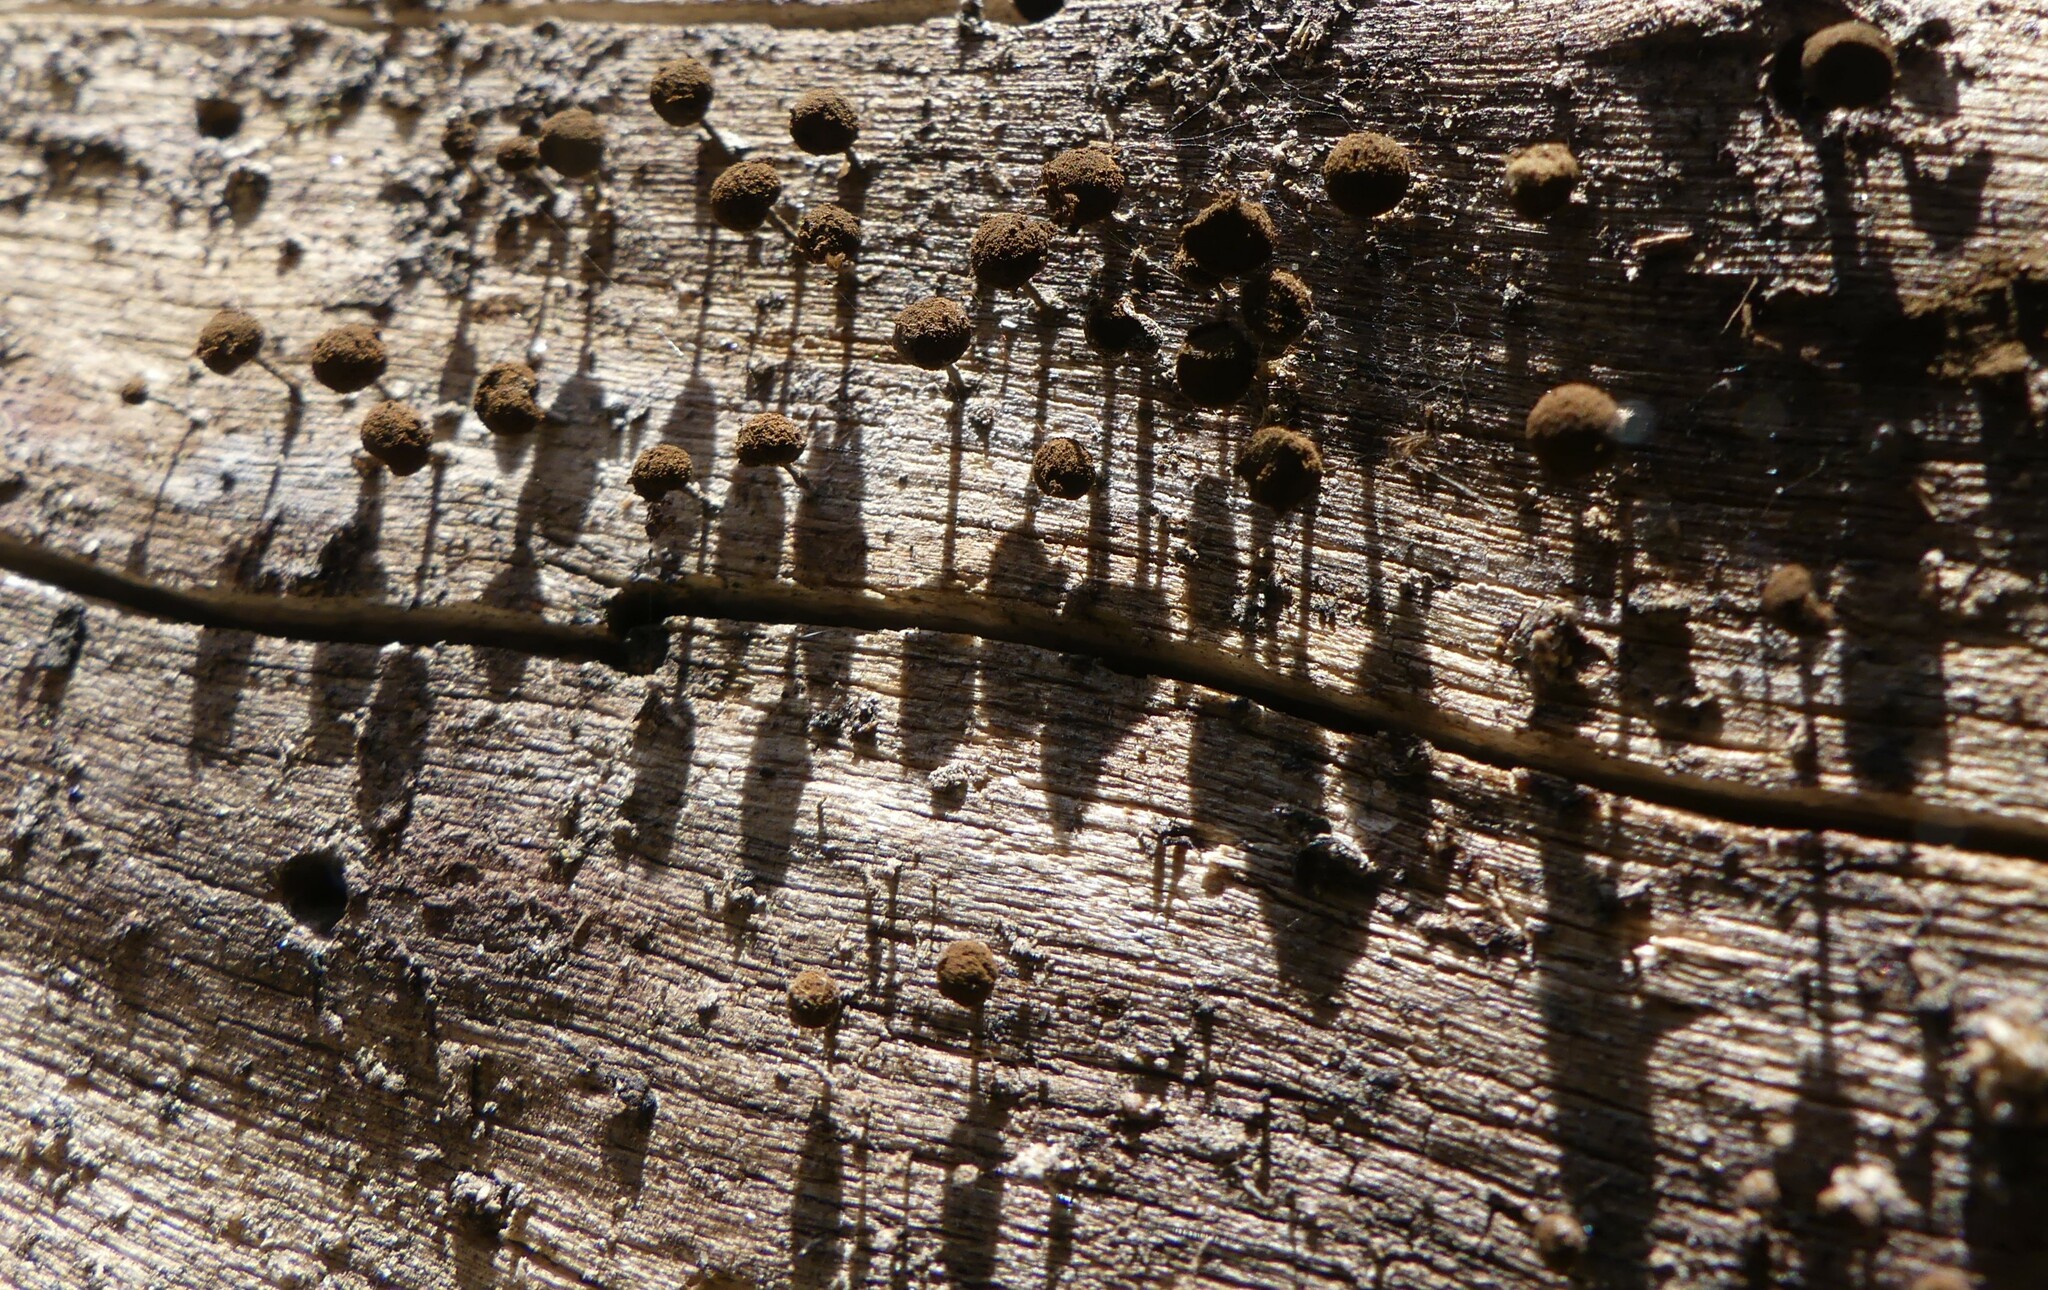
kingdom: Fungi
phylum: Basidiomycota
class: Atractiellomycetes
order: Atractiellales
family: Phleogenaceae
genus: Phleogena
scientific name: Phleogena faginea
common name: Fenugreek stalkball
